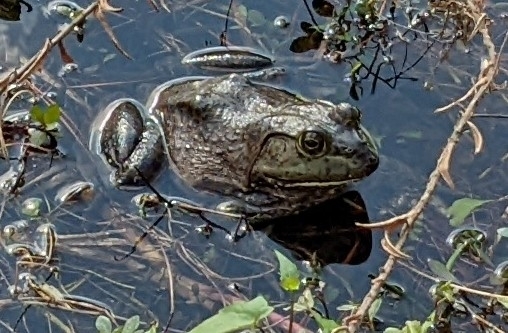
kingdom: Animalia
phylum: Chordata
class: Amphibia
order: Anura
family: Ranidae
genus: Lithobates
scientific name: Lithobates catesbeianus
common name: American bullfrog
